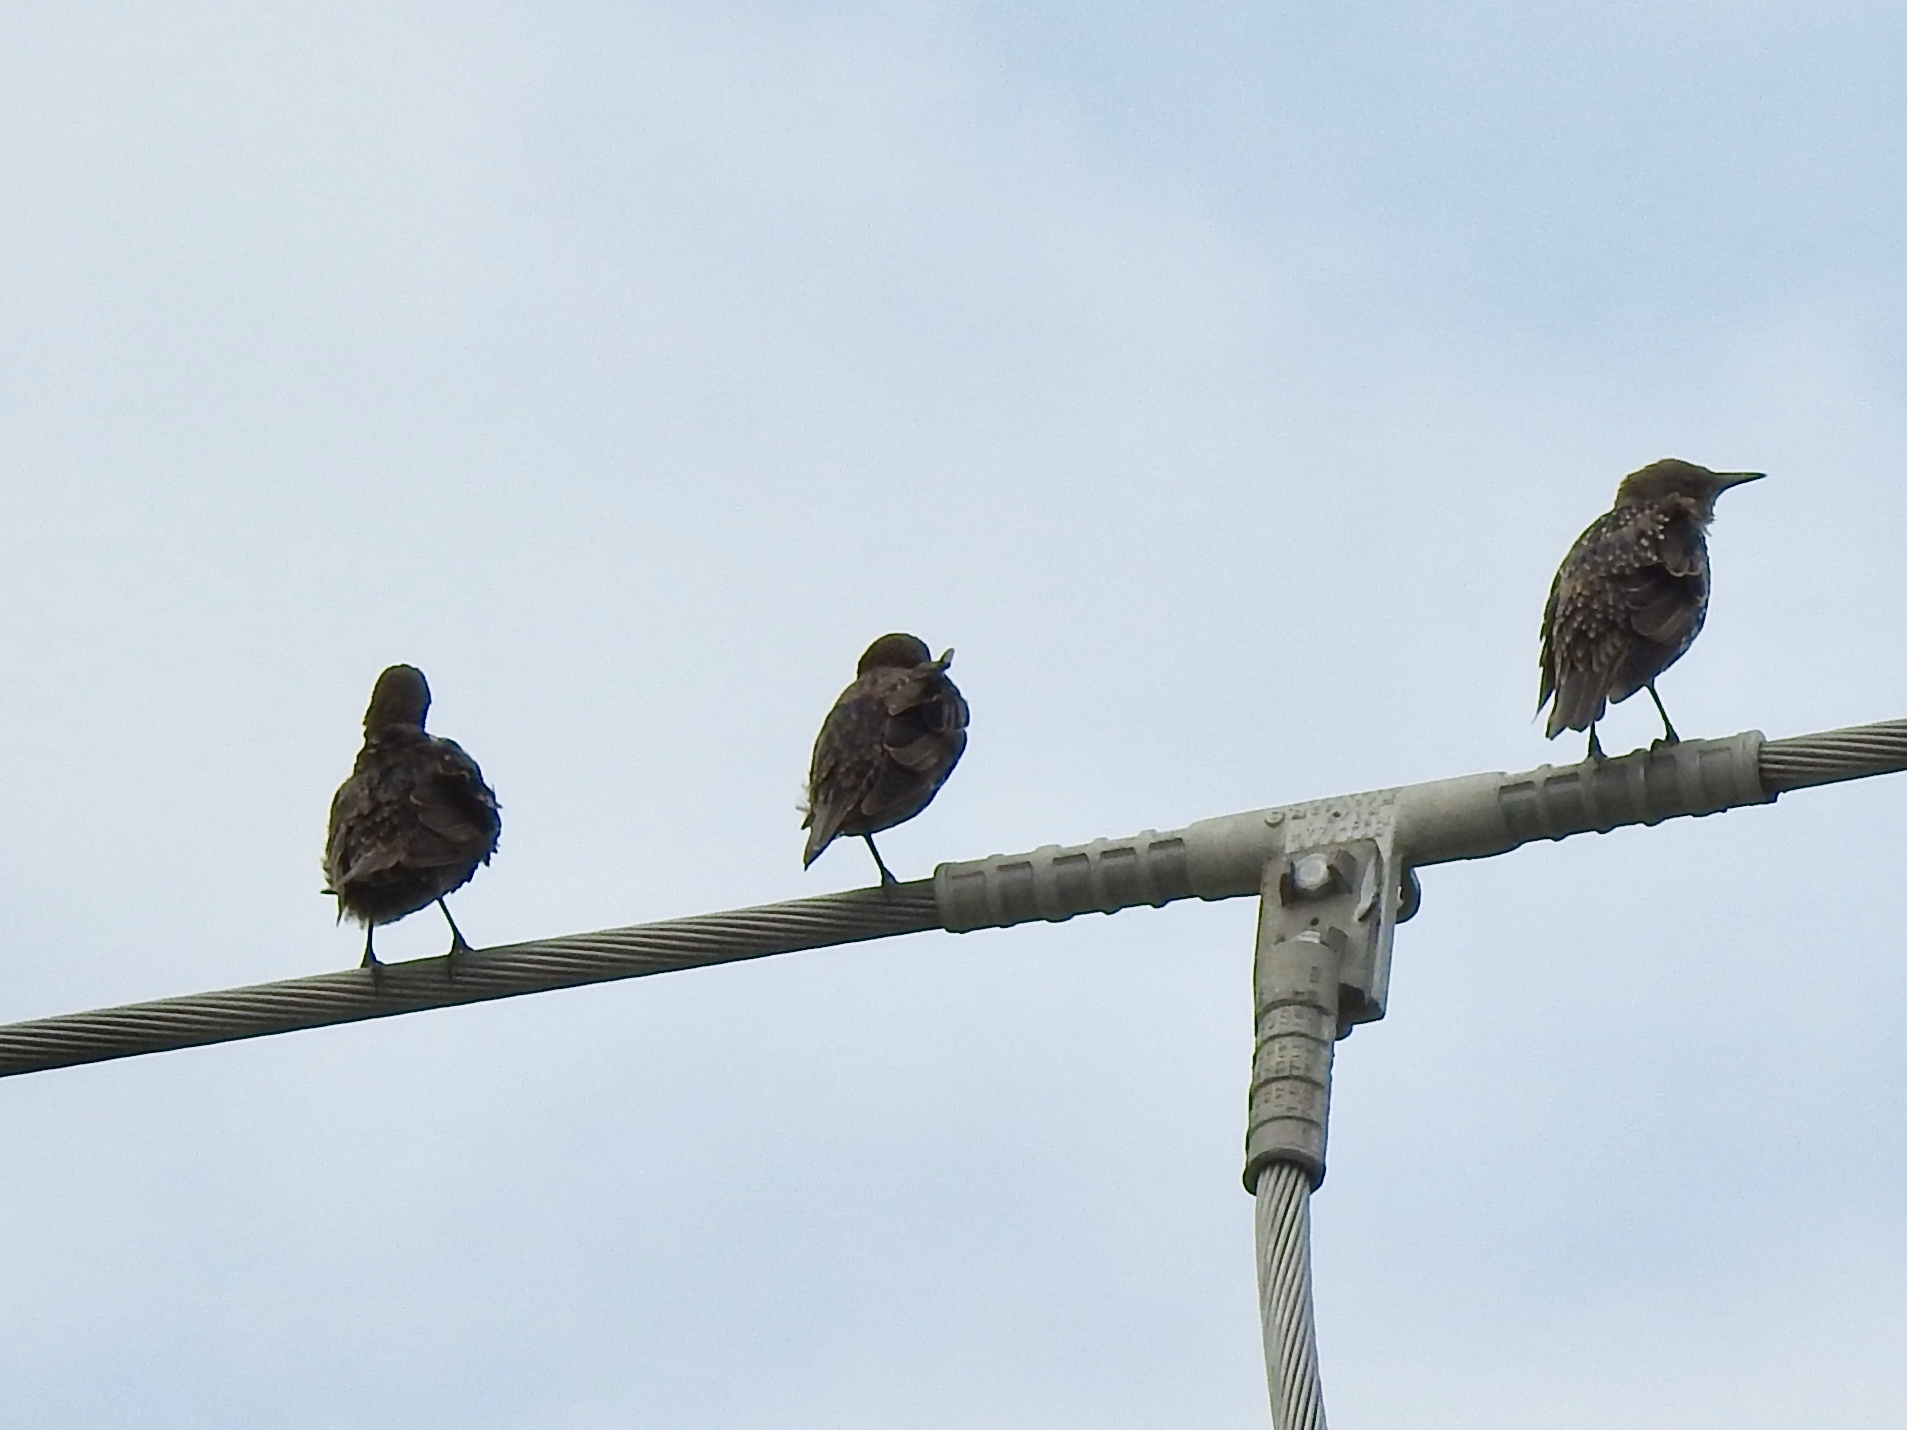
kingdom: Animalia
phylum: Chordata
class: Aves
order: Passeriformes
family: Sturnidae
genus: Sturnus
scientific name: Sturnus vulgaris
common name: Common starling
